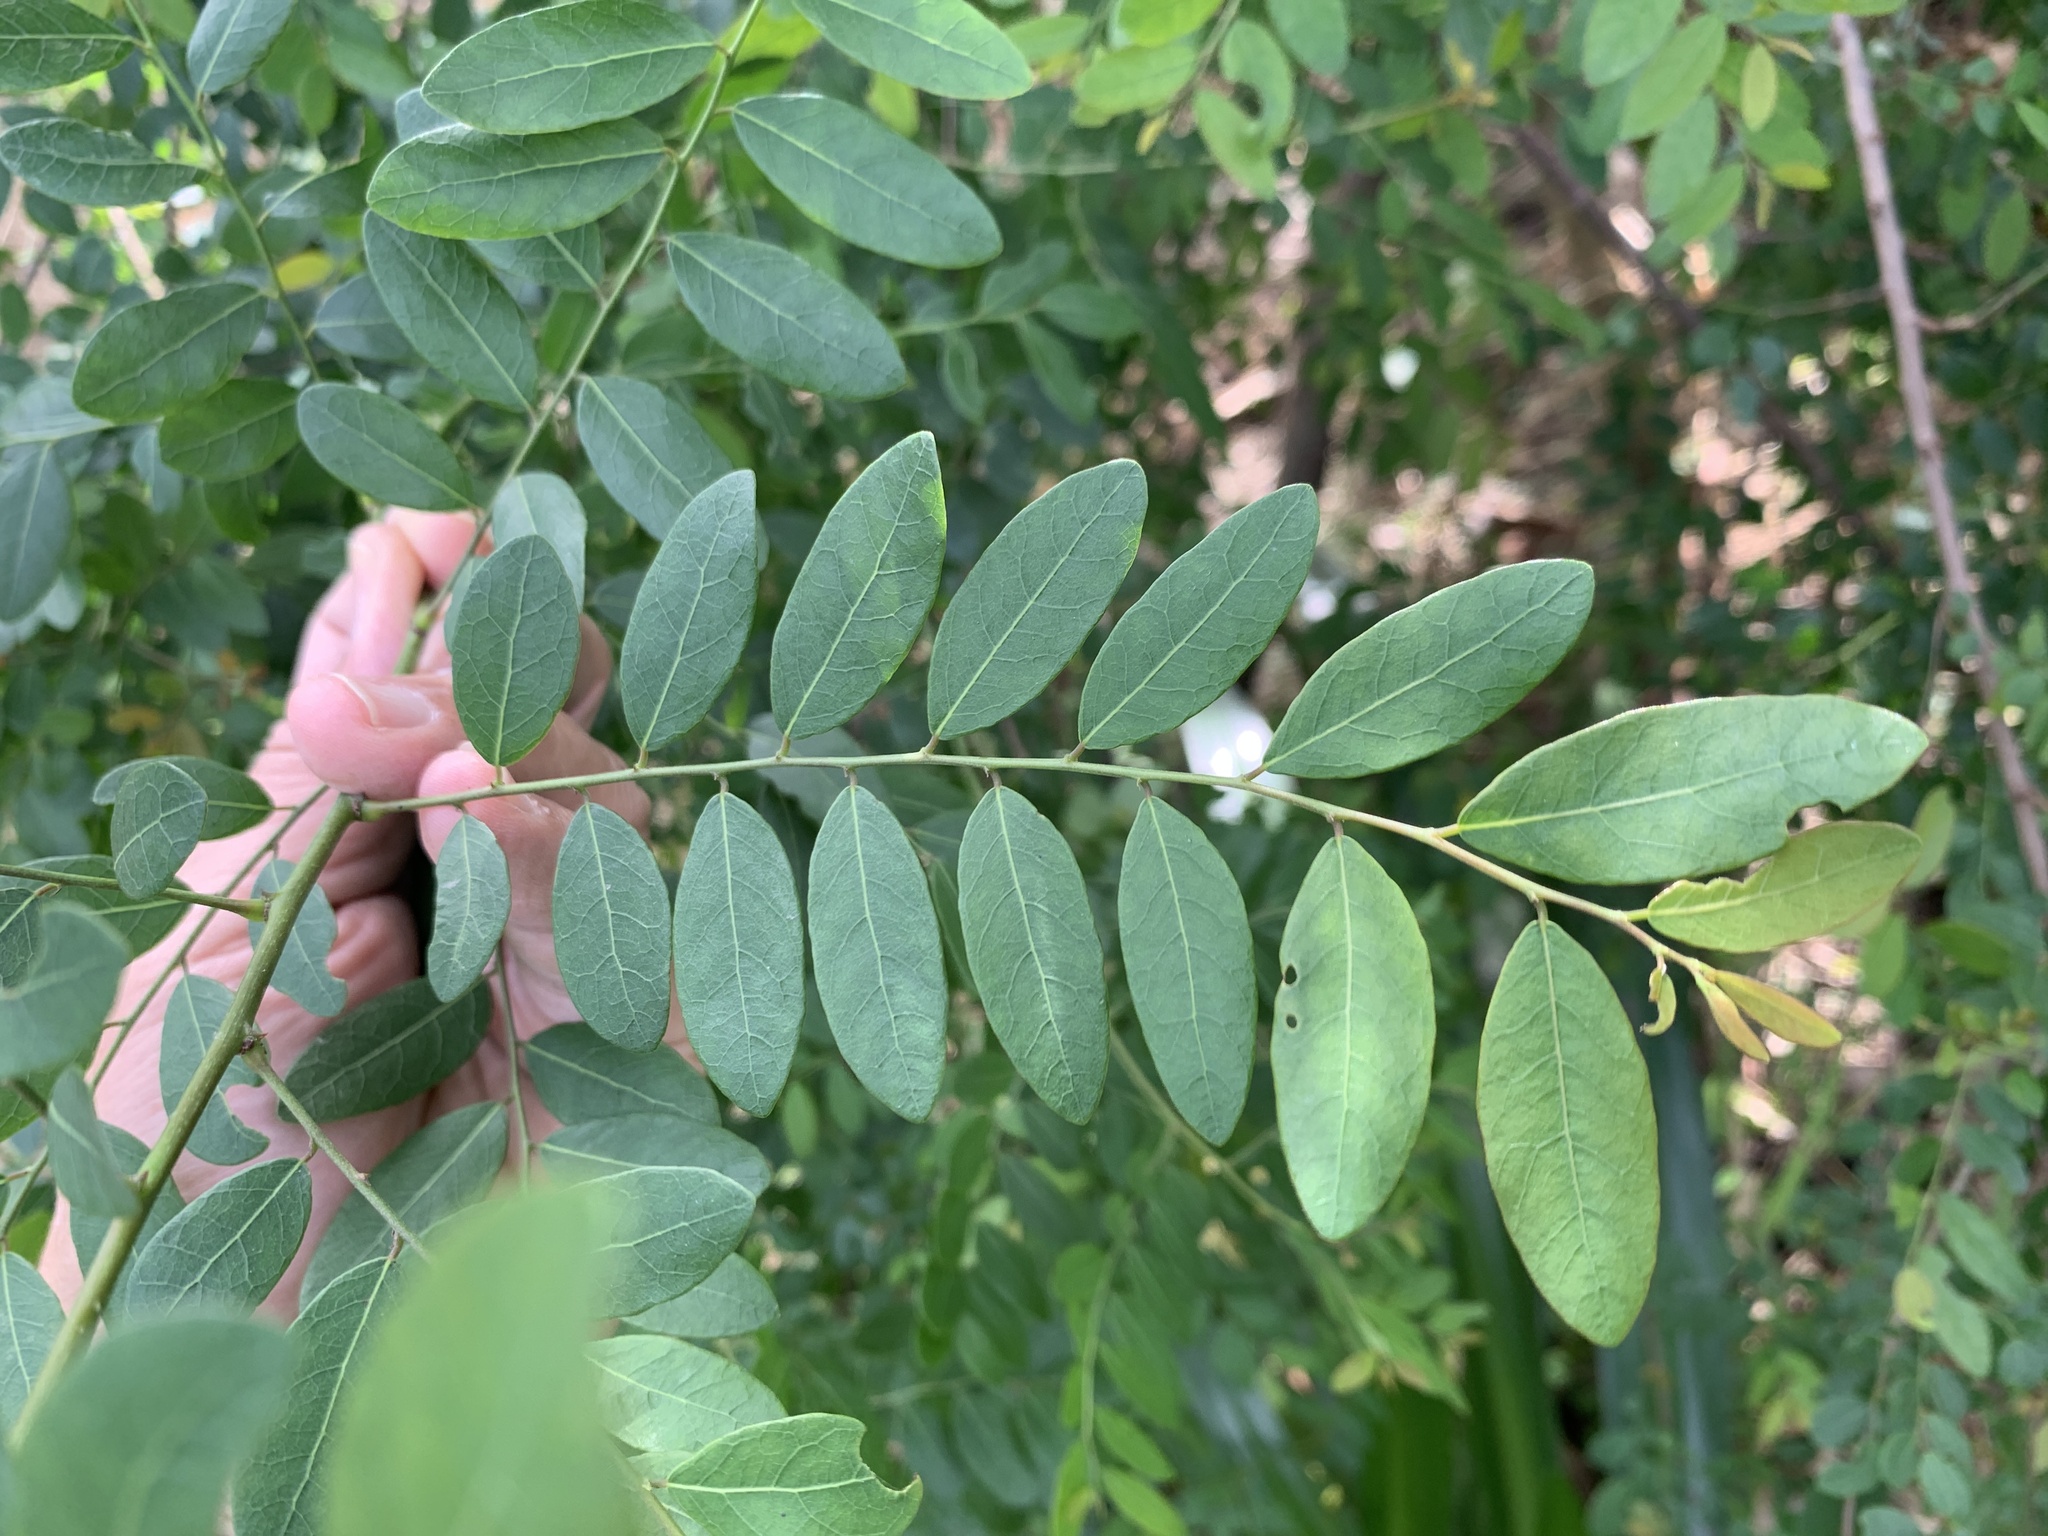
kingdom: Plantae
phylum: Tracheophyta
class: Magnoliopsida
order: Malpighiales
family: Phyllanthaceae
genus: Phyllanthus
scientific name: Phyllanthus reticulatus
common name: Potato bush
